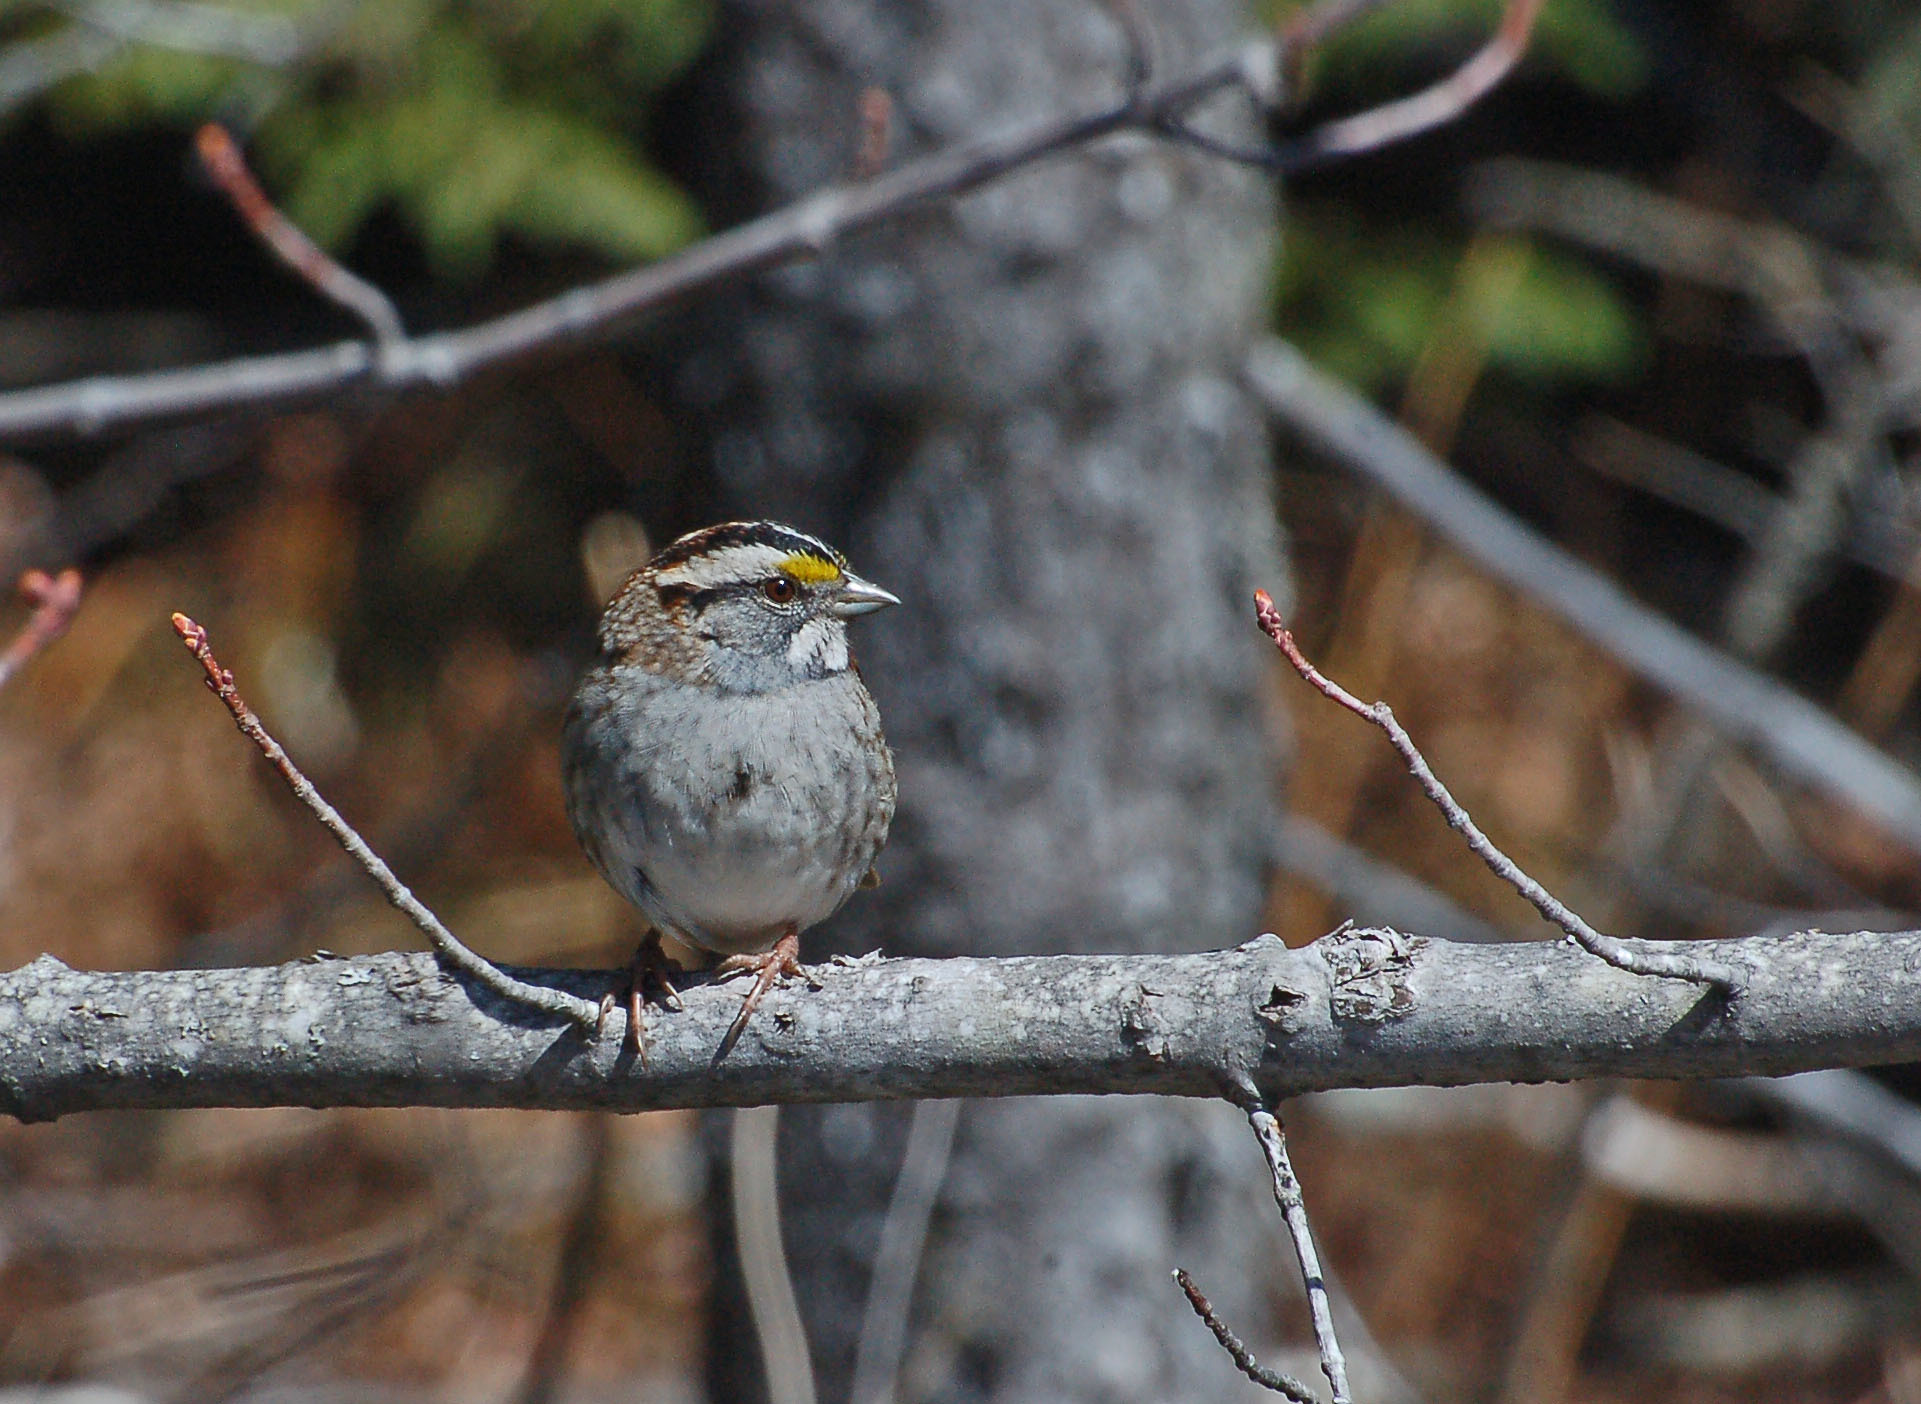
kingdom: Animalia
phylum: Chordata
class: Aves
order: Passeriformes
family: Passerellidae
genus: Zonotrichia
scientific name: Zonotrichia albicollis
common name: White-throated sparrow
